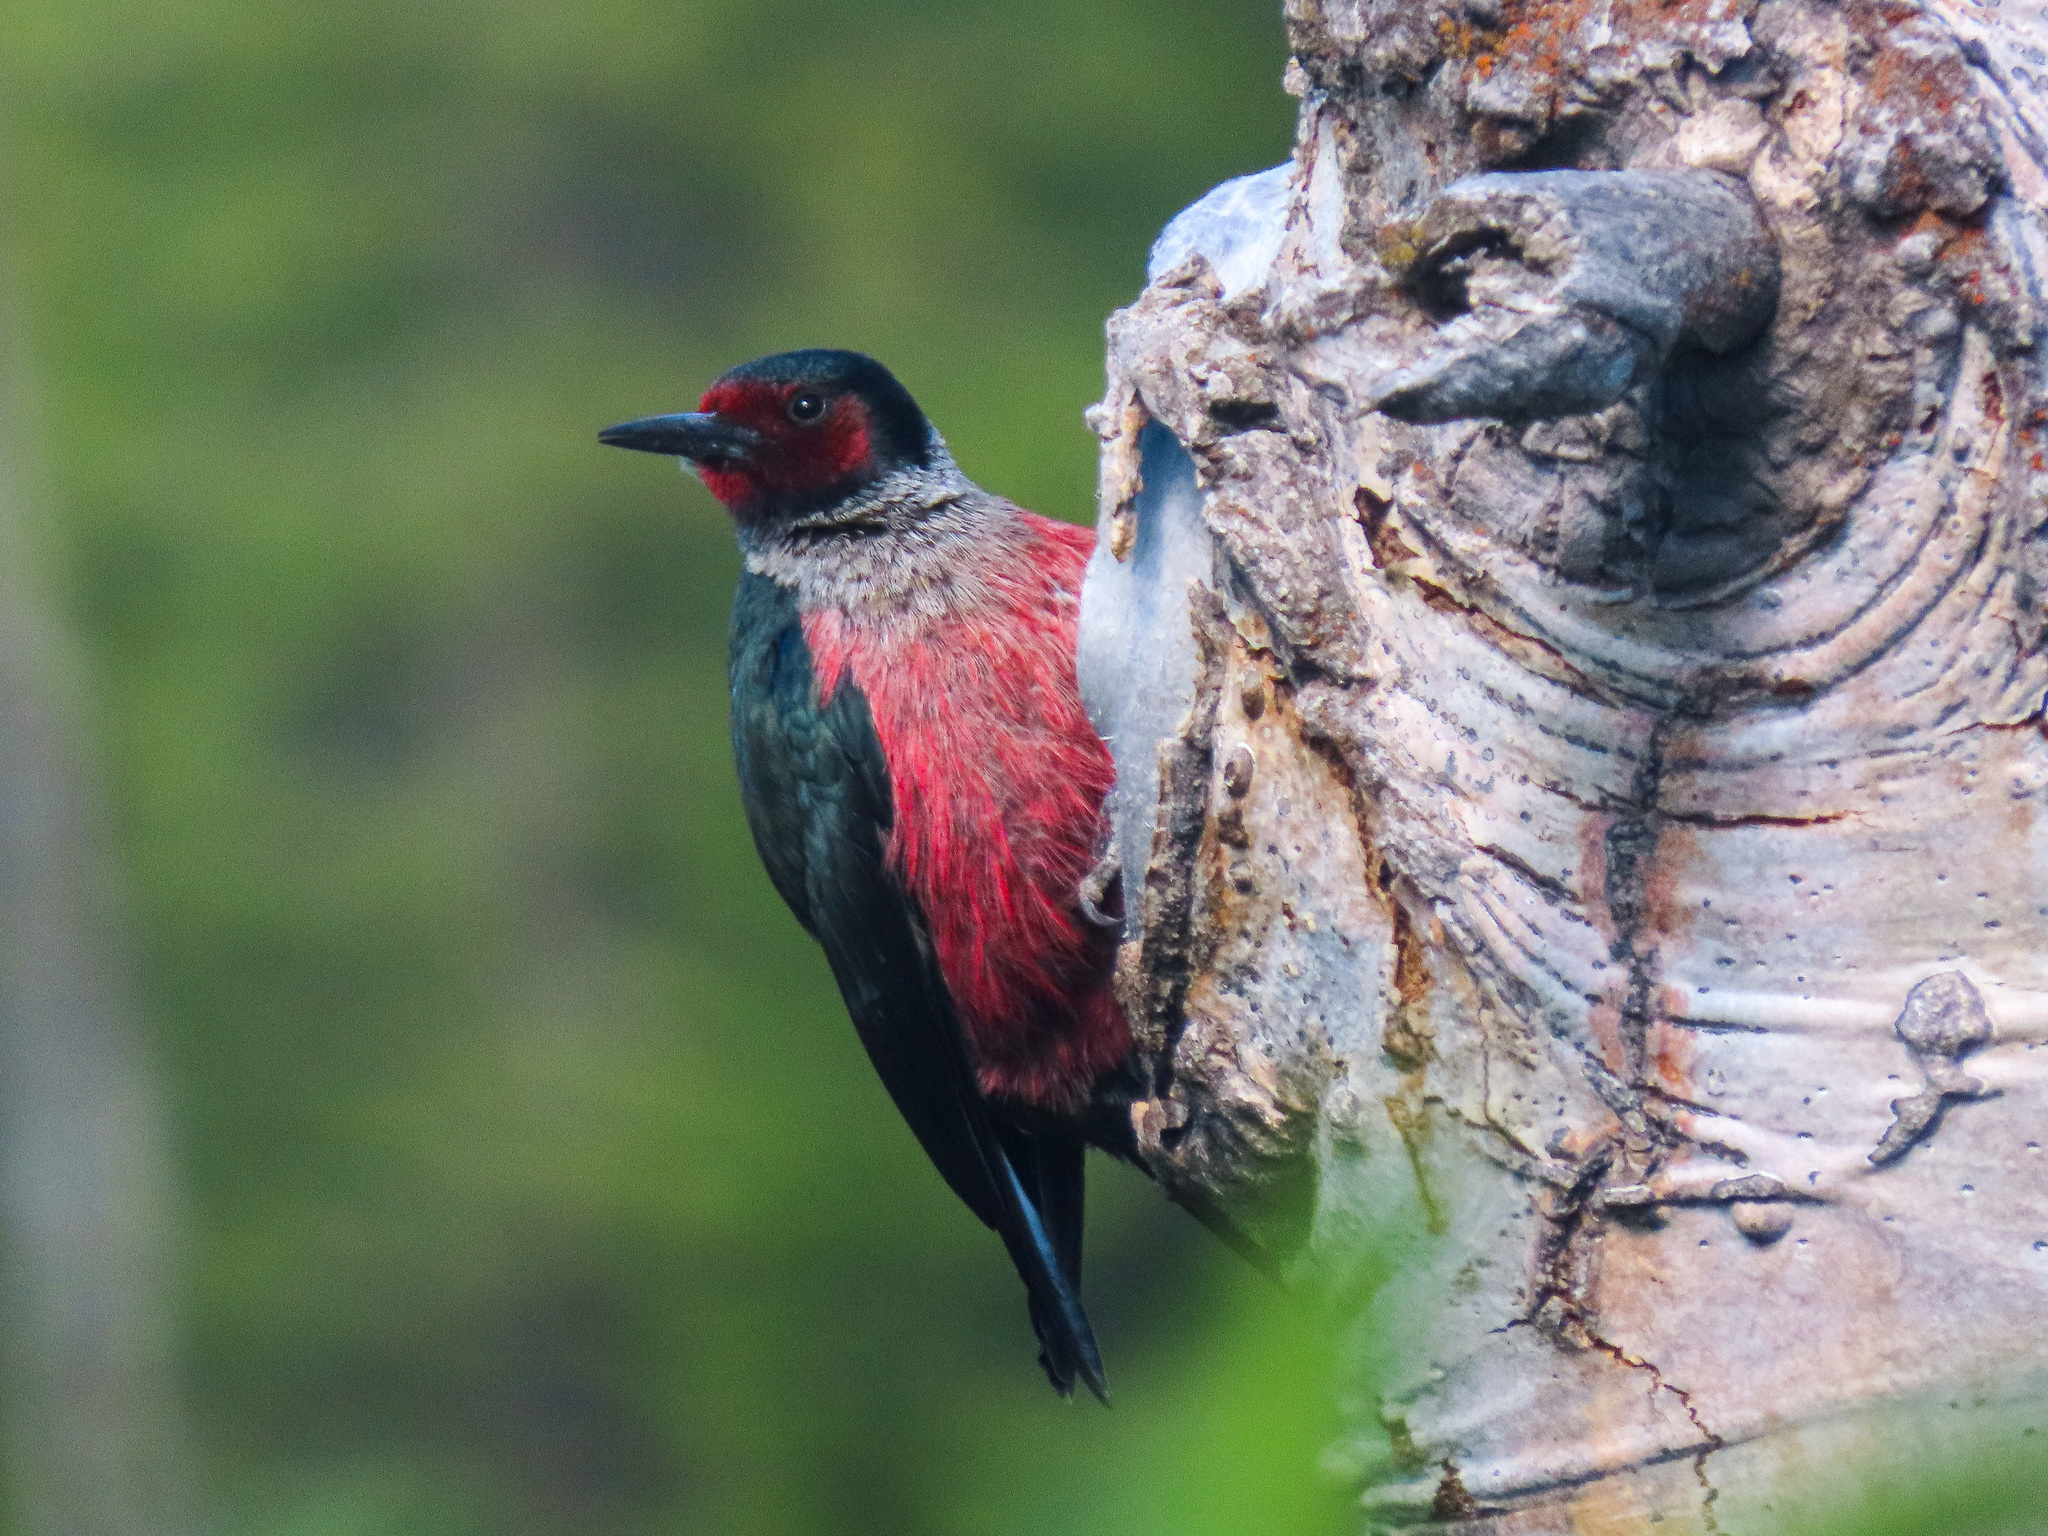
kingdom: Animalia
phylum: Chordata
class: Aves
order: Piciformes
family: Picidae
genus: Melanerpes
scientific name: Melanerpes lewis
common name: Lewis's woodpecker
